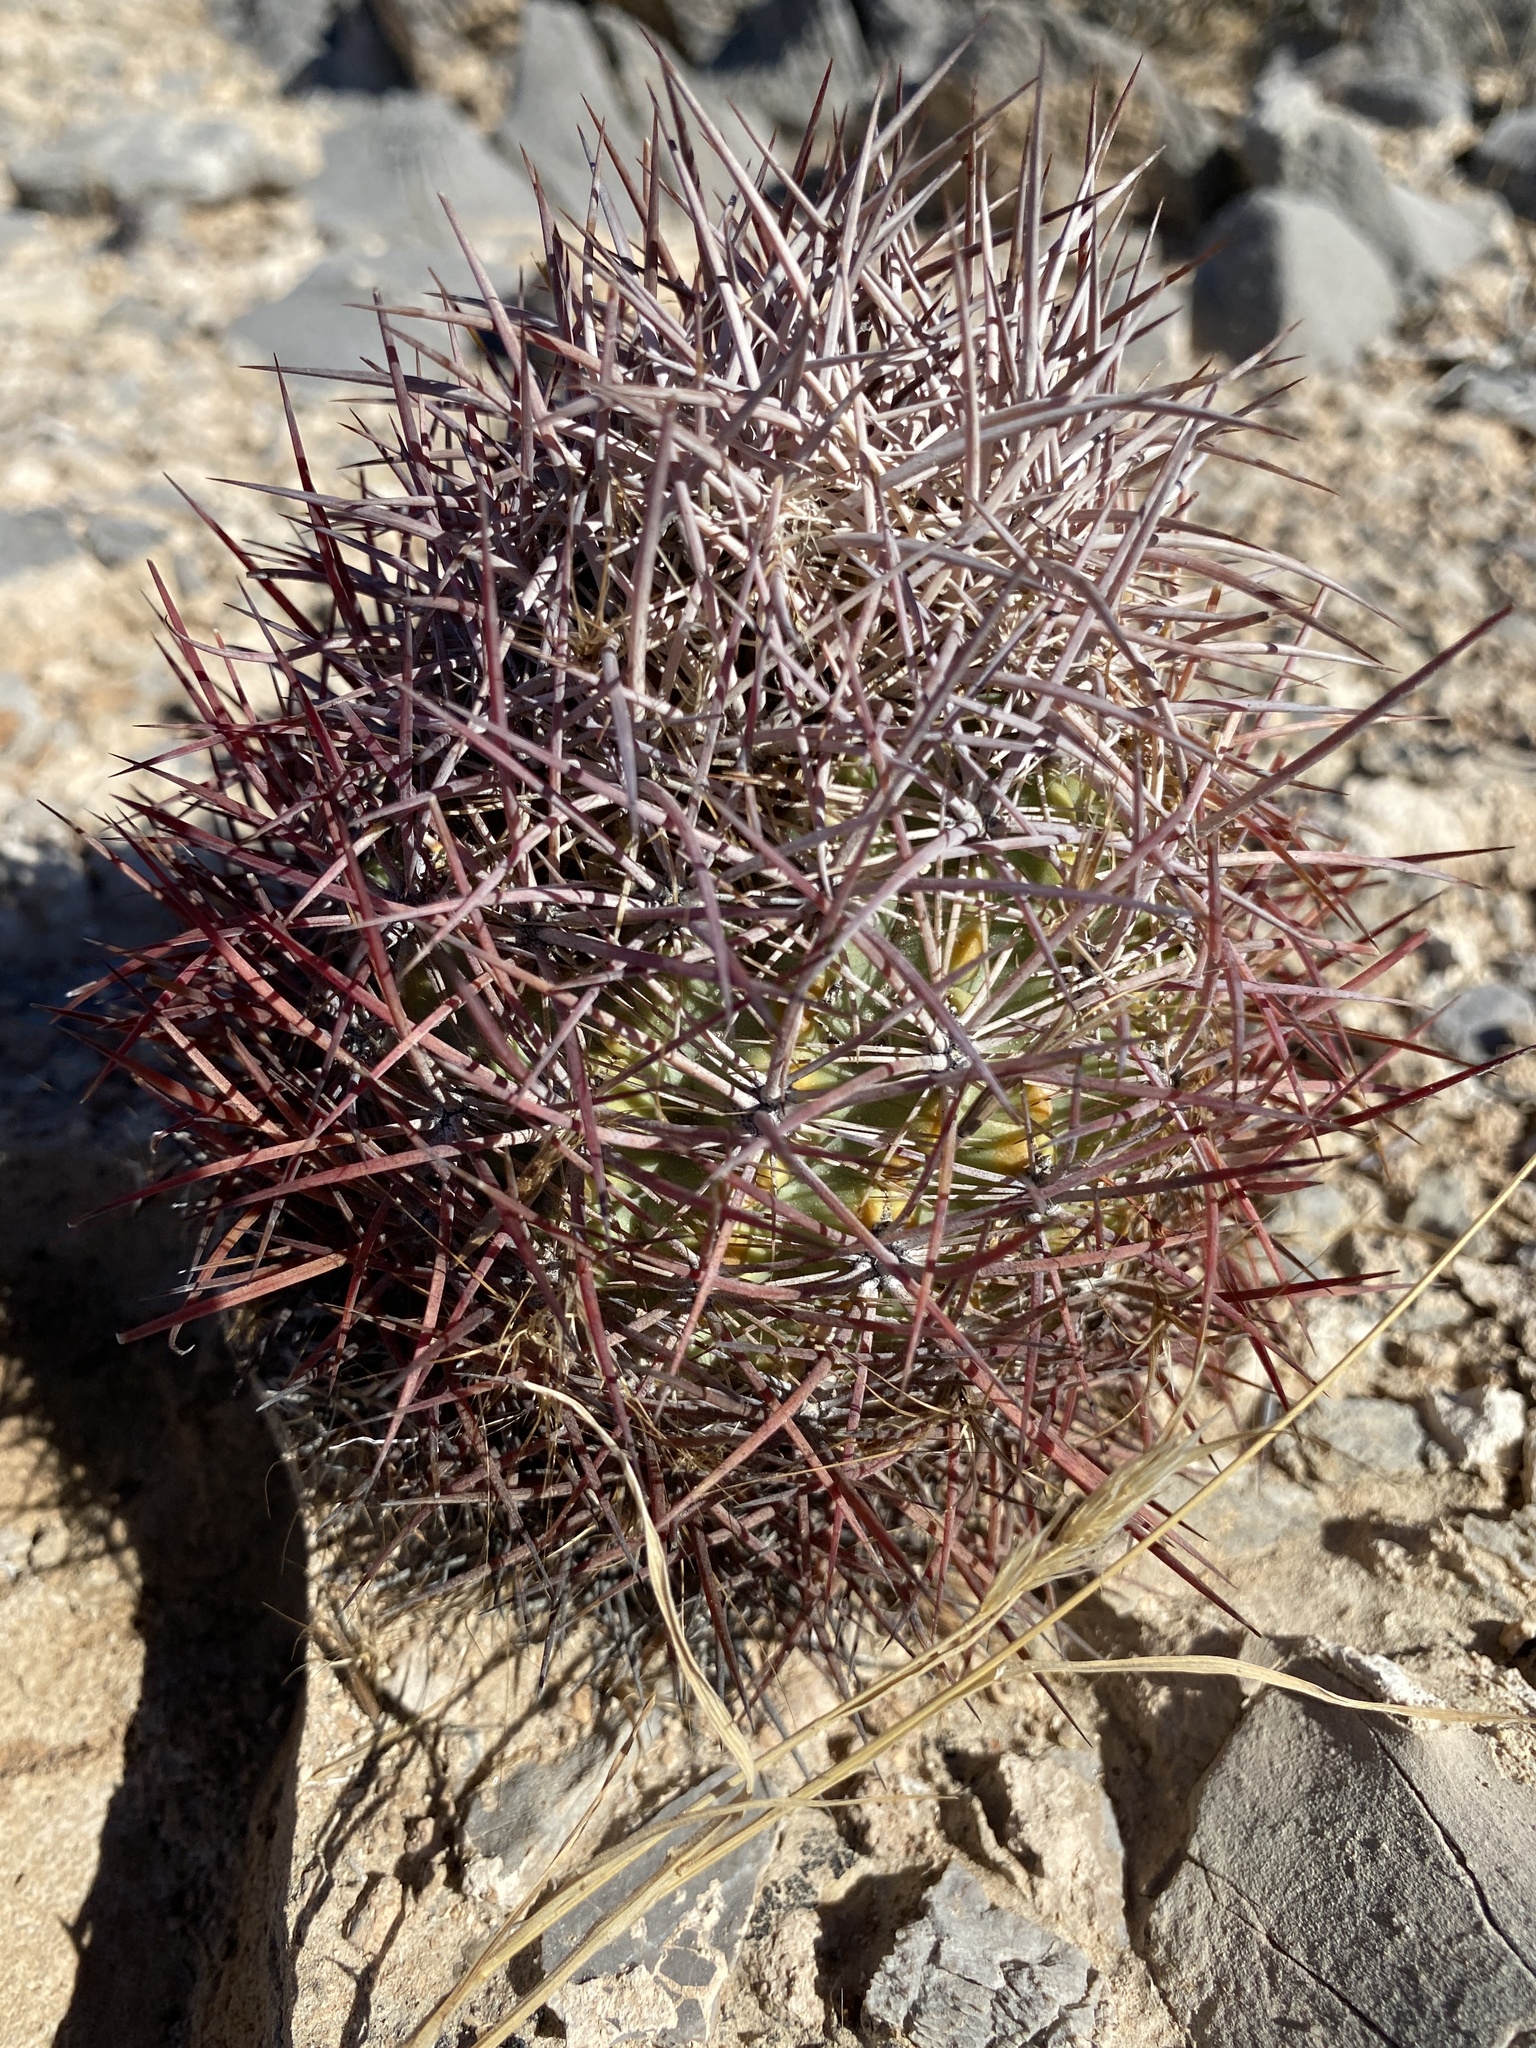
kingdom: Plantae
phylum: Tracheophyta
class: Magnoliopsida
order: Caryophyllales
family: Cactaceae
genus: Sclerocactus
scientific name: Sclerocactus johnsonii
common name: Eight-spine fishhook cactus
